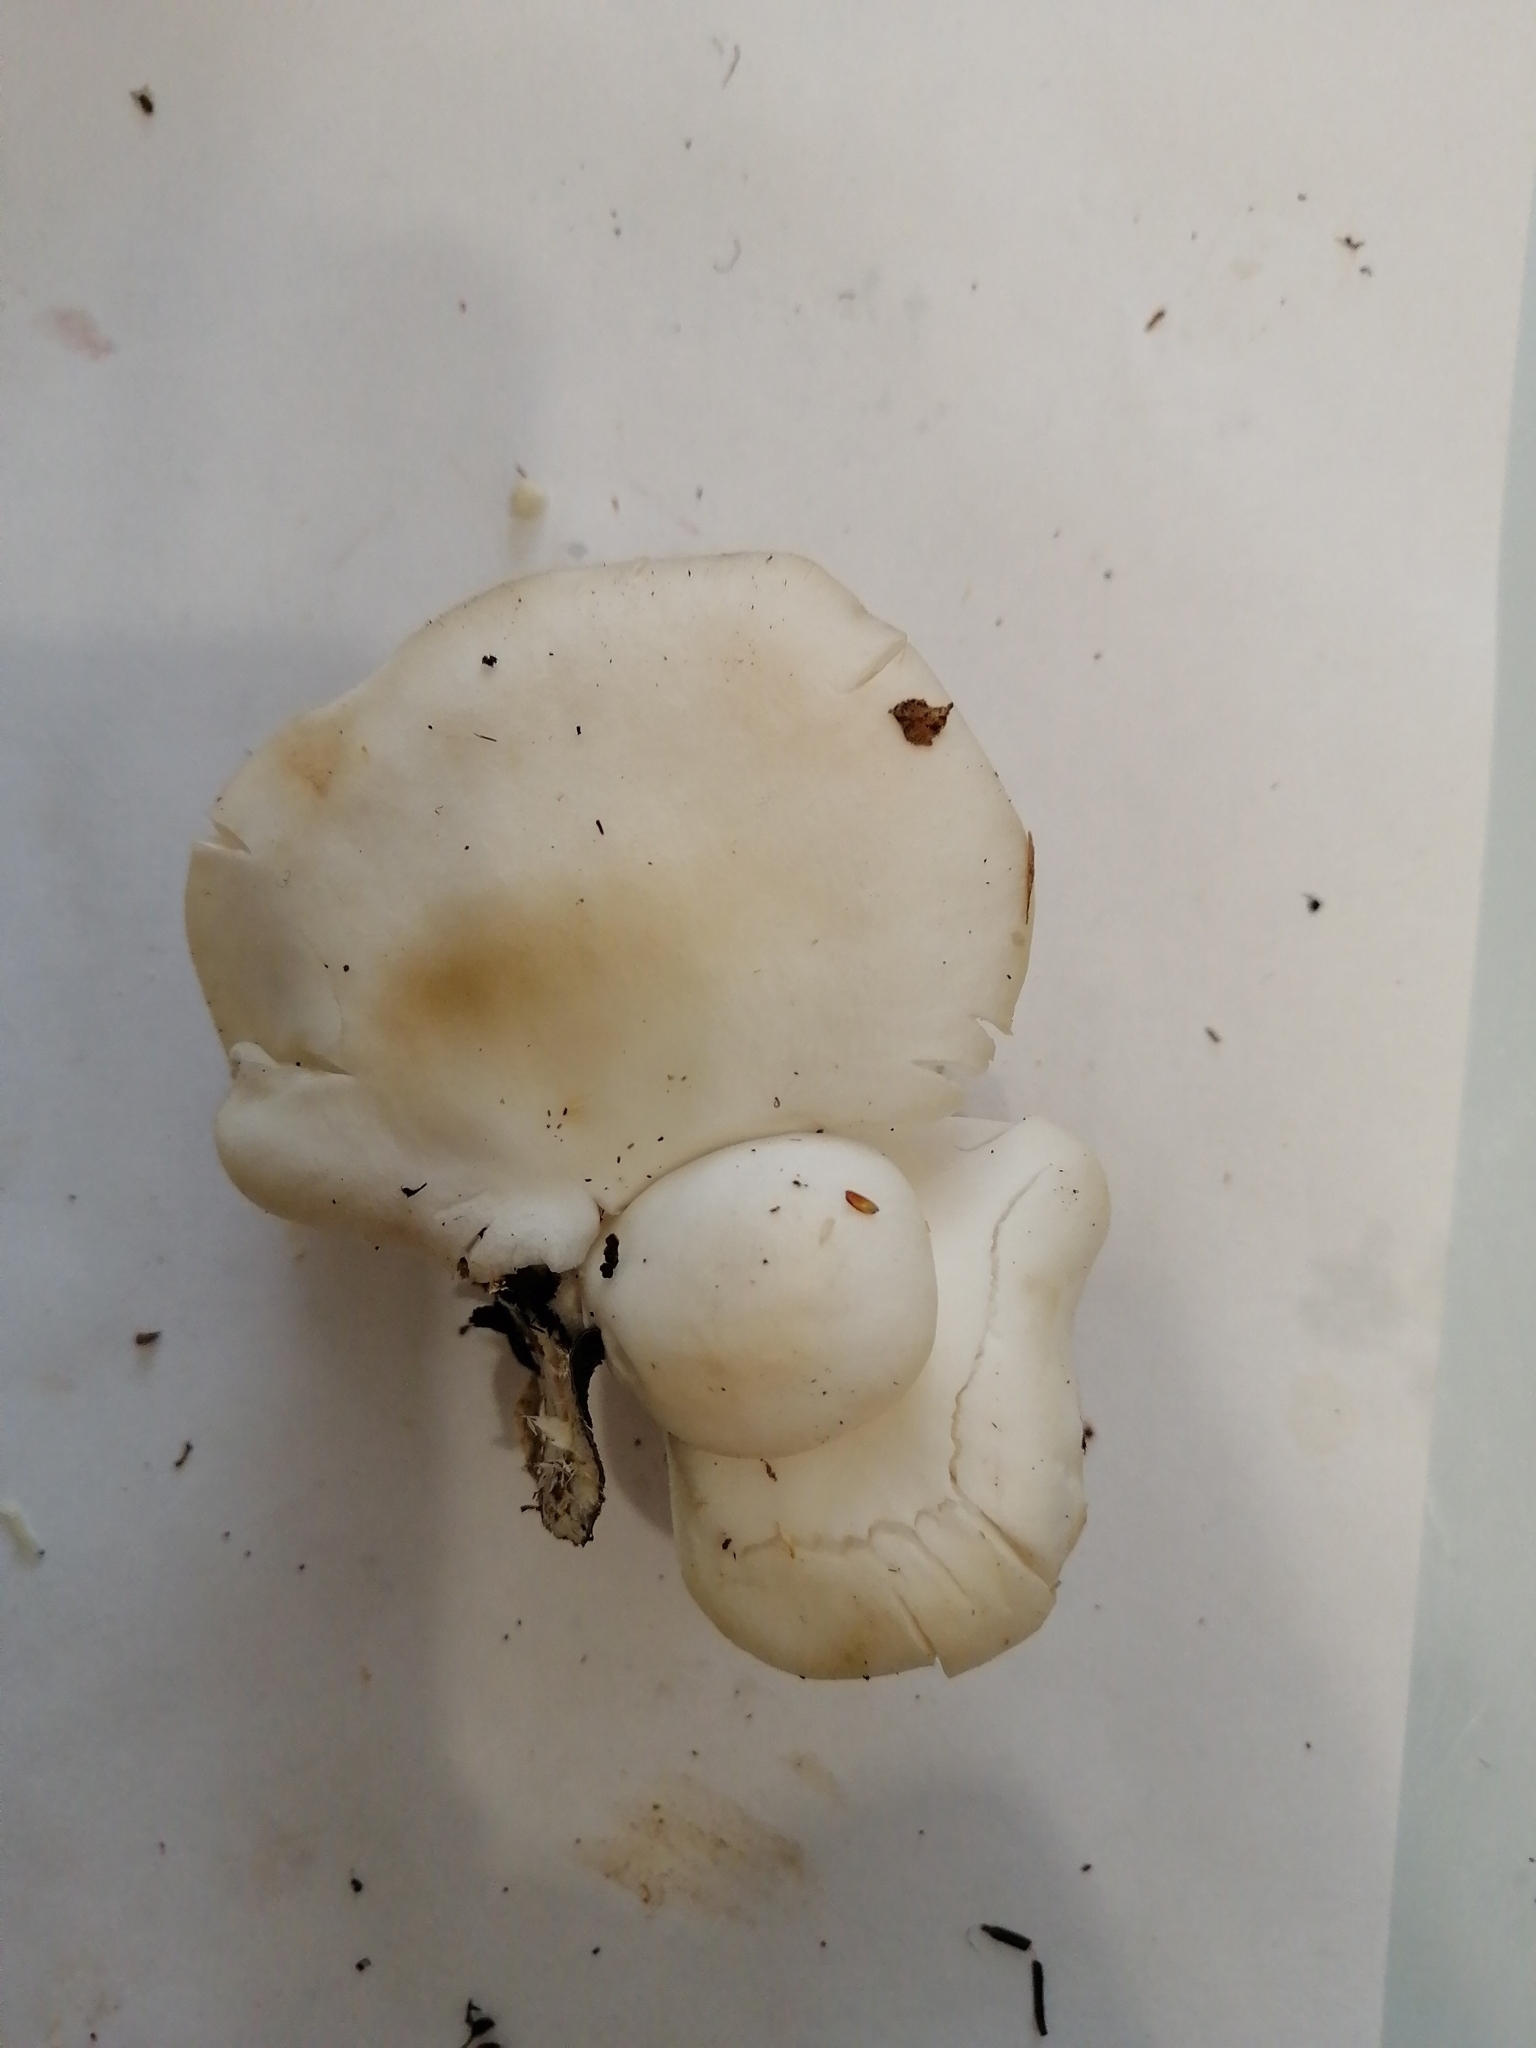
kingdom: Fungi
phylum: Basidiomycota
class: Agaricomycetes
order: Agaricales
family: Pleurotaceae
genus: Pleurotus
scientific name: Pleurotus pulmonarius
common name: Pale oyster
